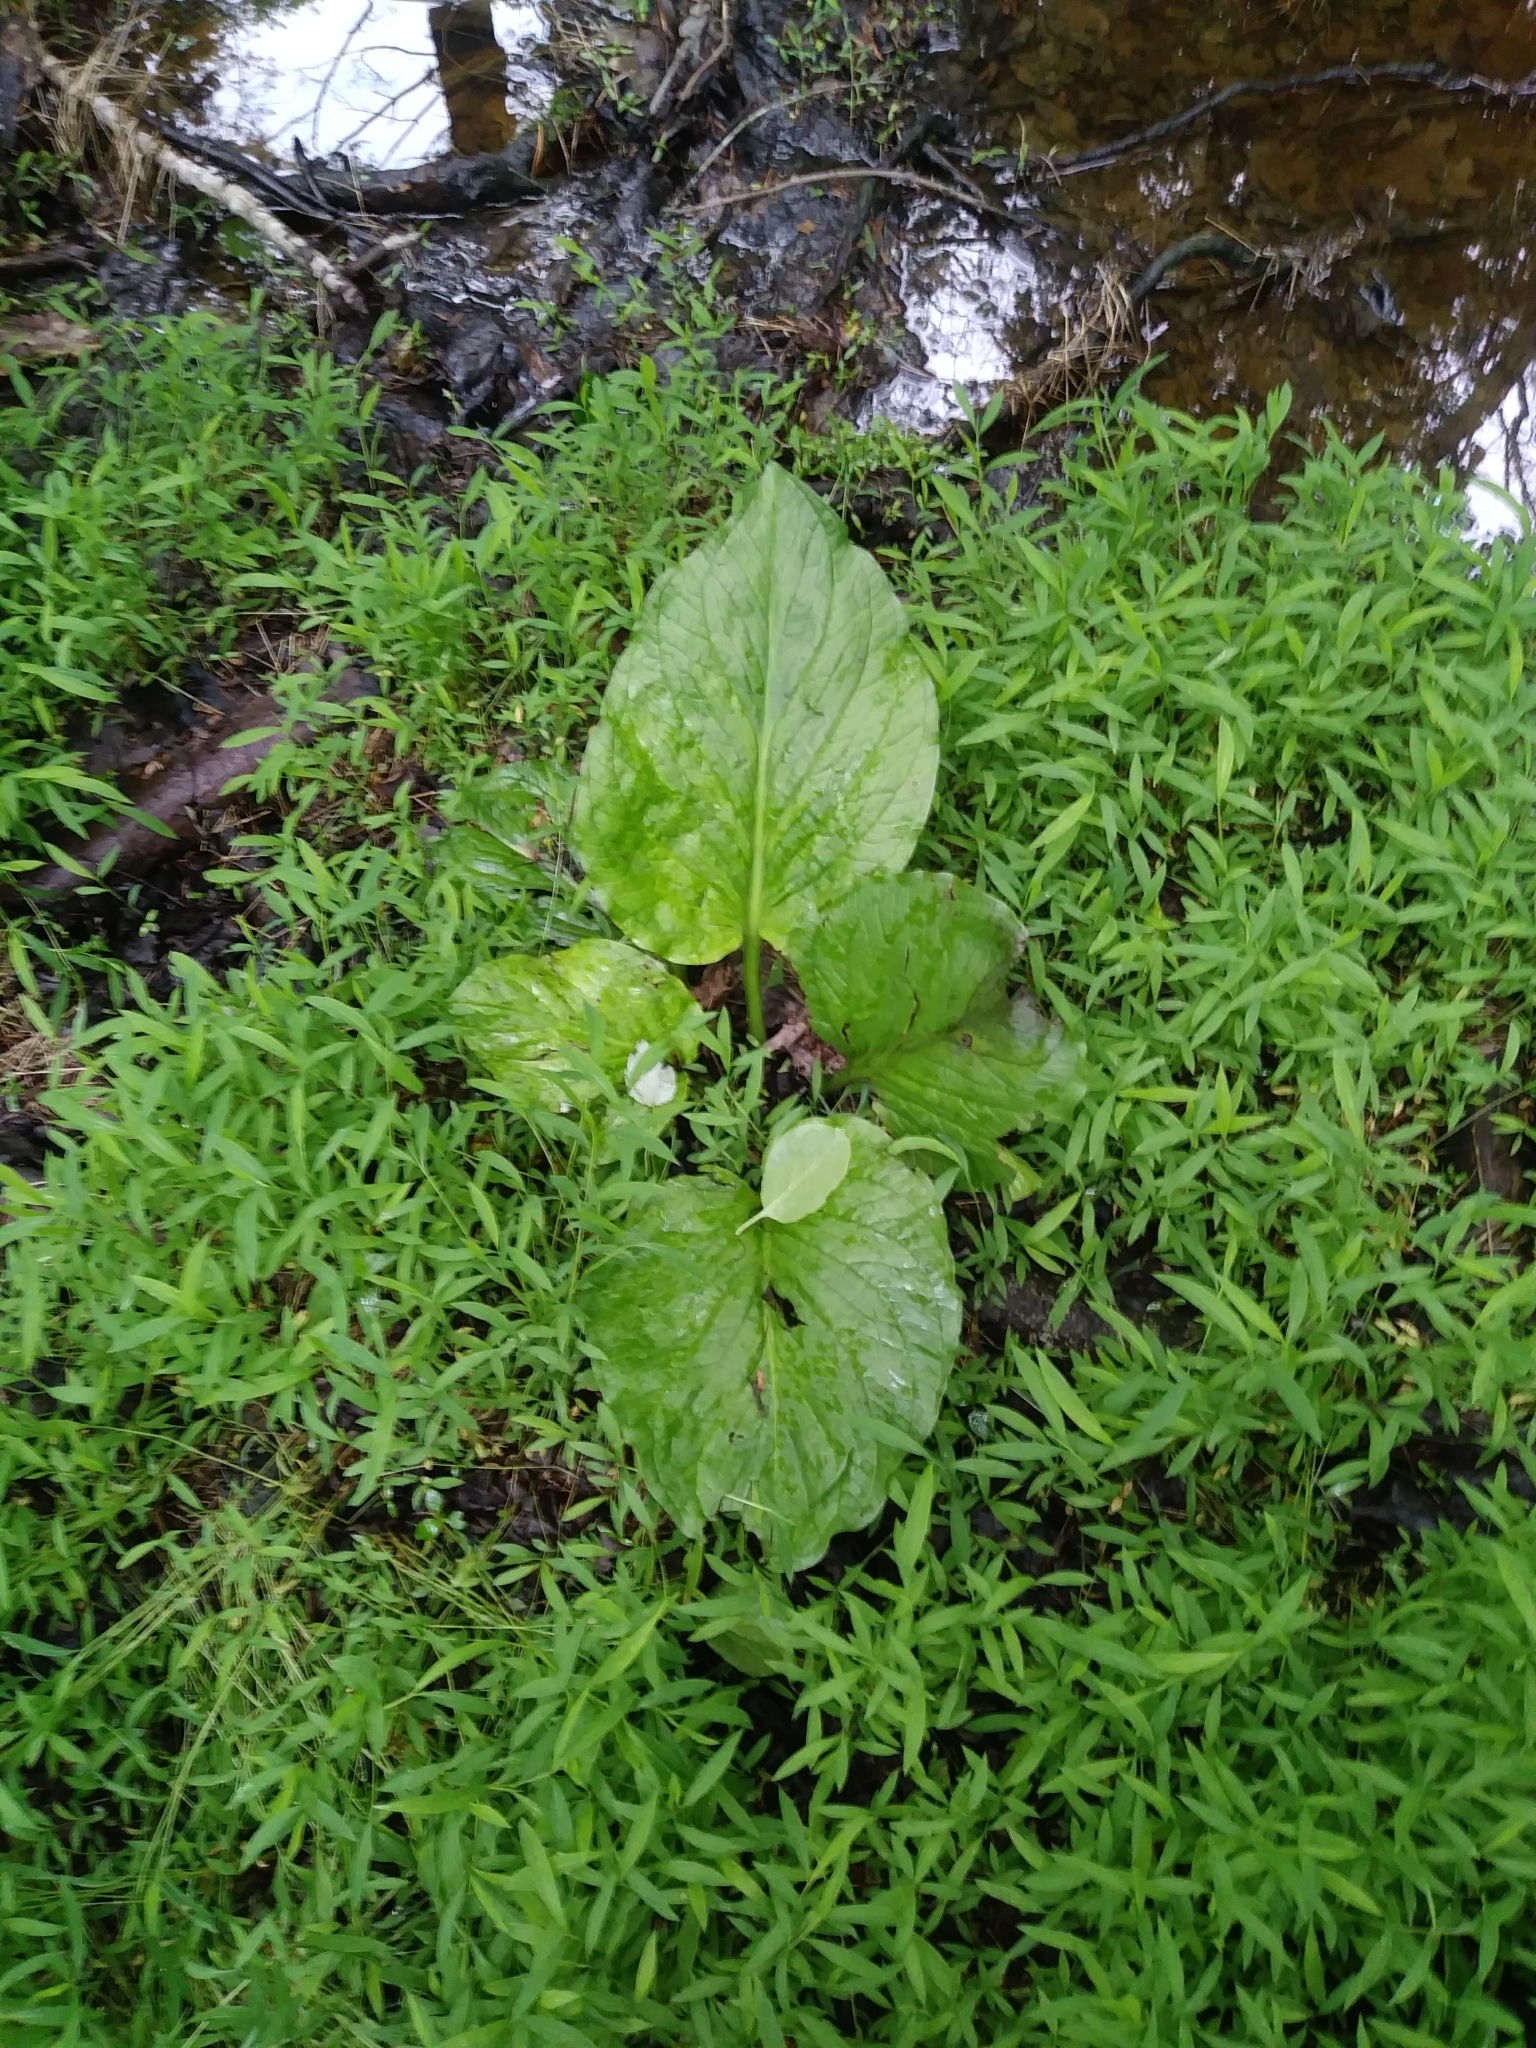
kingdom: Plantae
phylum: Tracheophyta
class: Liliopsida
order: Alismatales
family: Araceae
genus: Symplocarpus
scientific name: Symplocarpus foetidus
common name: Eastern skunk cabbage
